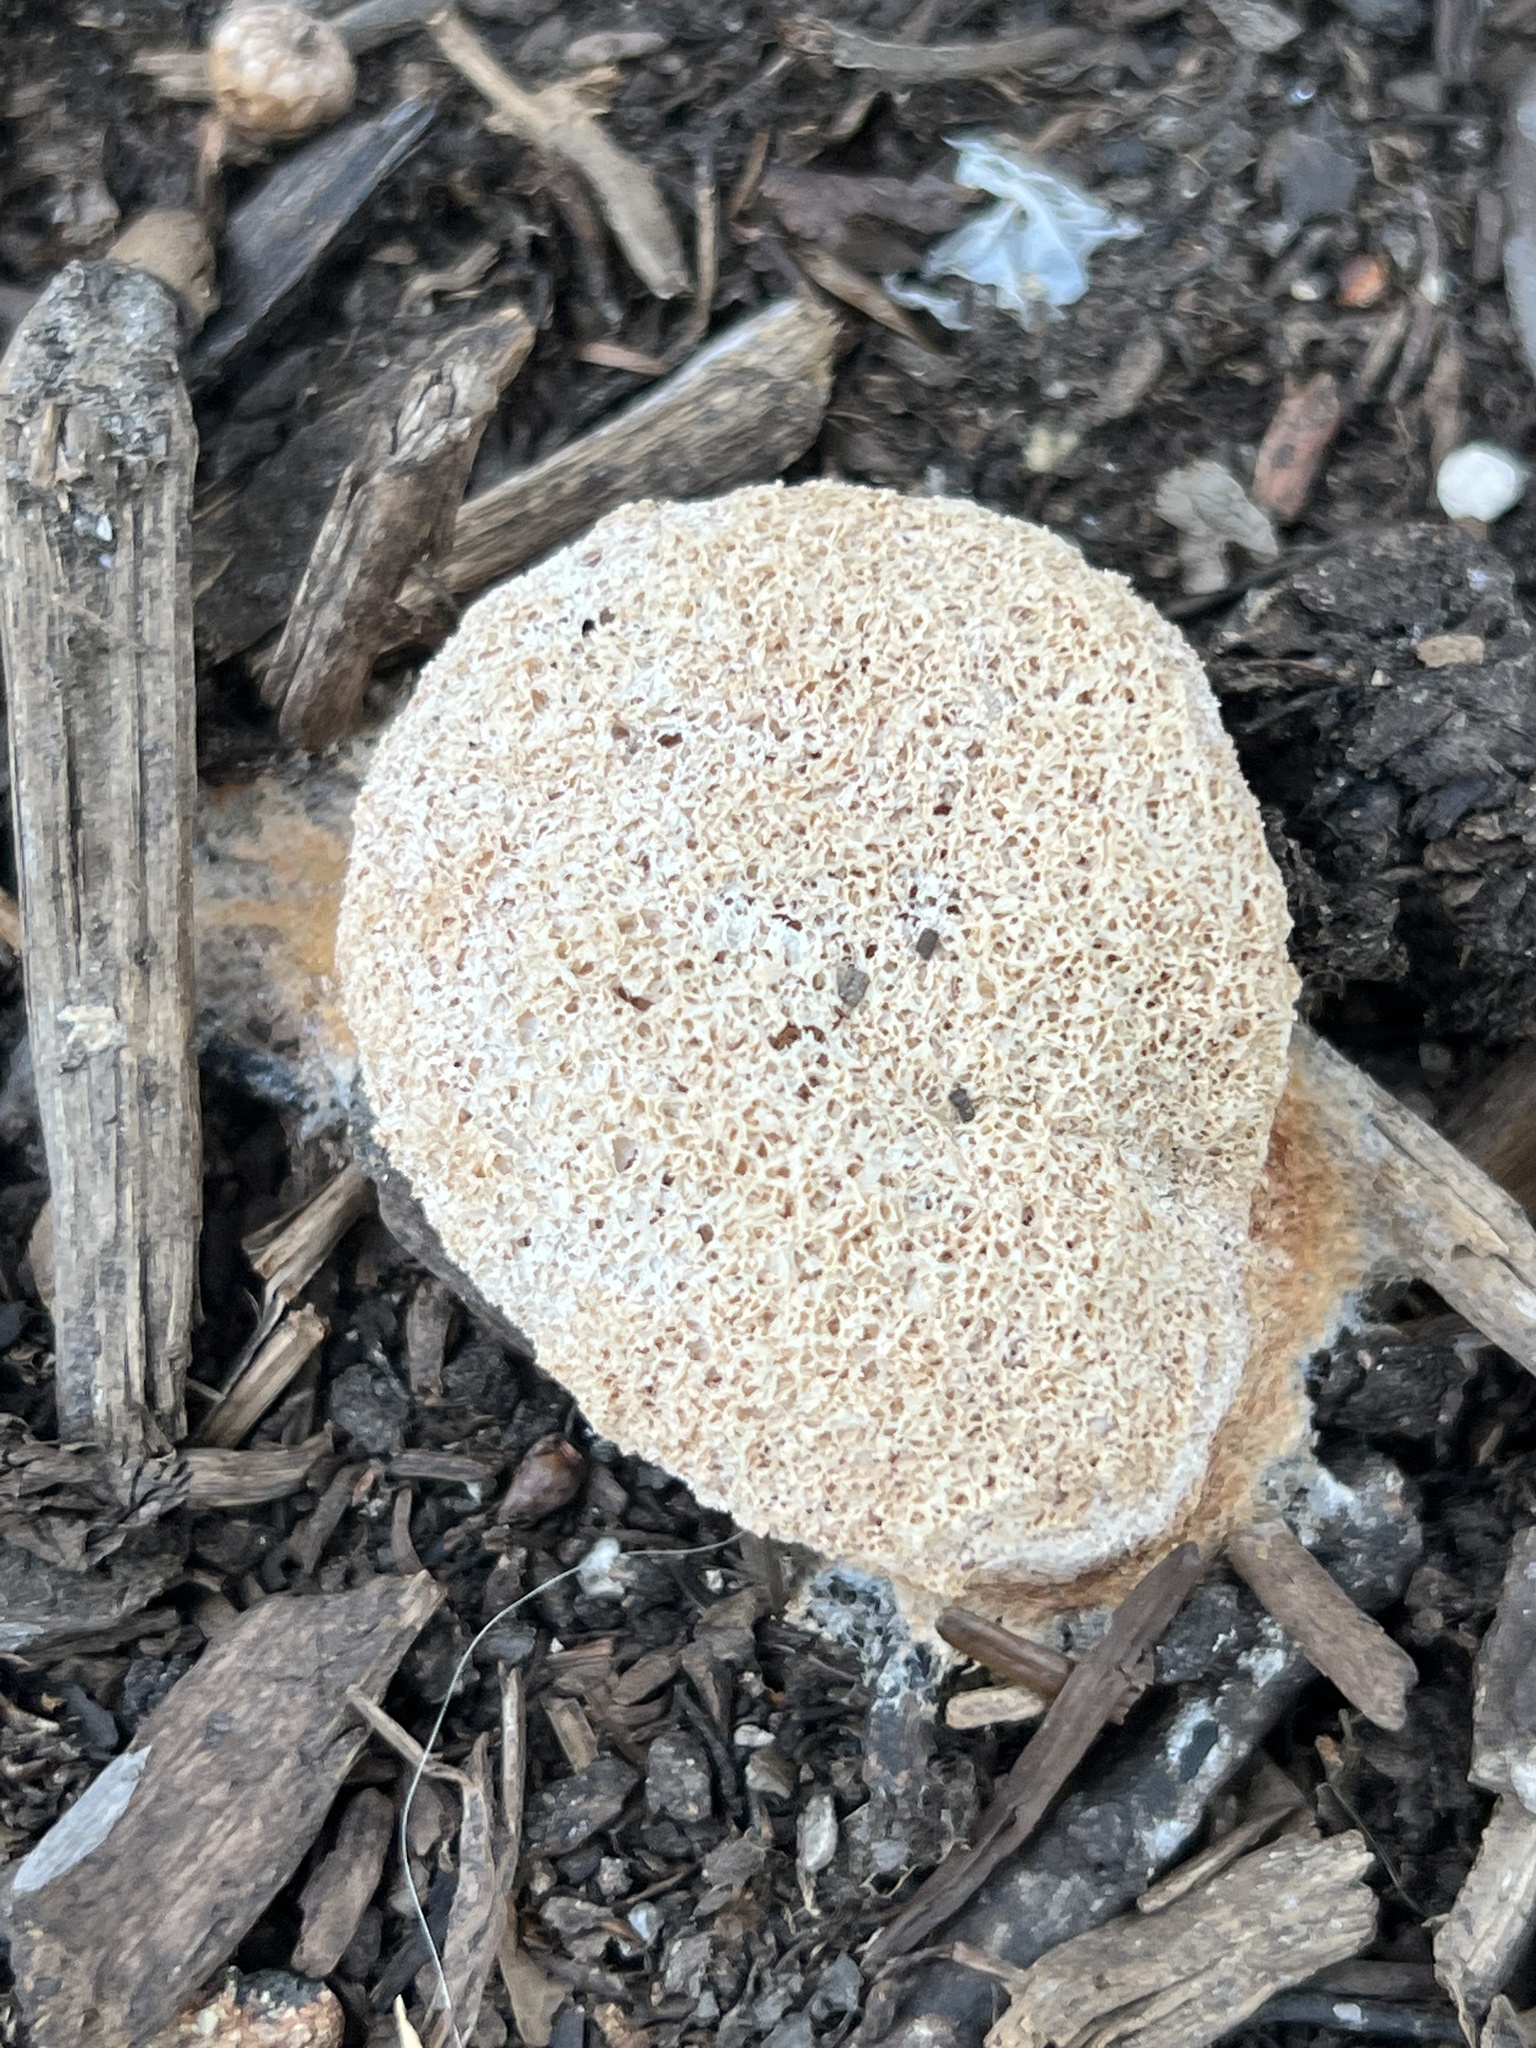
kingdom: Protozoa
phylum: Mycetozoa
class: Myxomycetes
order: Physarales
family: Physaraceae
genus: Fuligo
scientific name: Fuligo septica
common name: Dog vomit slime mold
